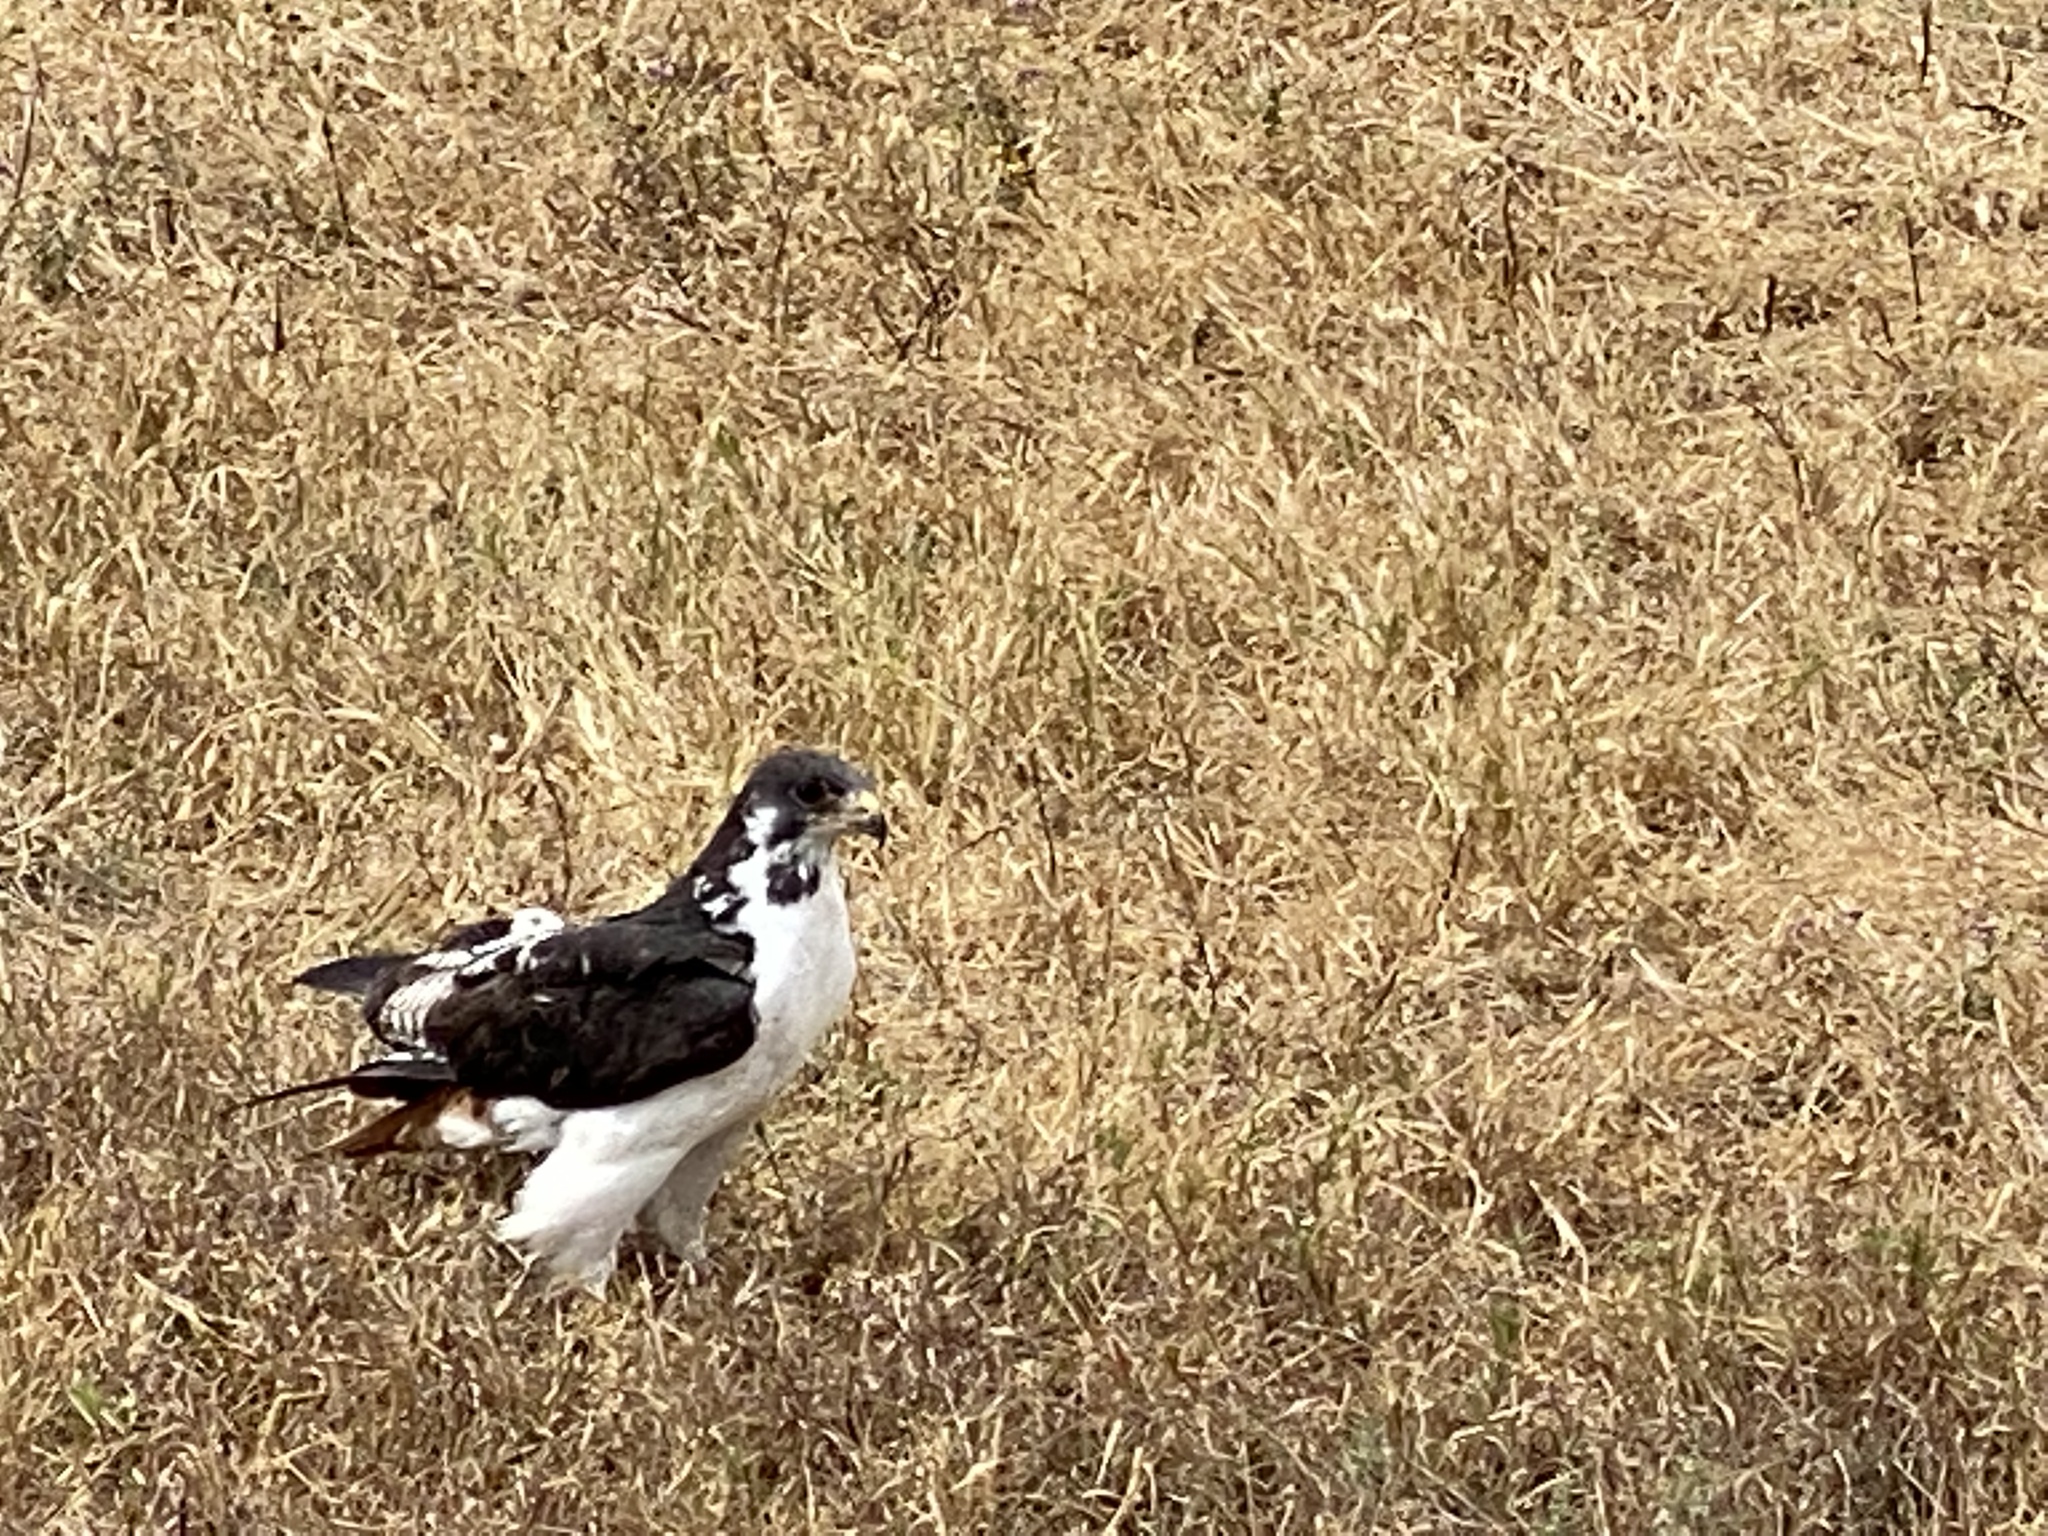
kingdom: Animalia
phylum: Chordata
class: Aves
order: Accipitriformes
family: Accipitridae
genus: Buteo
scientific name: Buteo augur
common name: Augur buzzard
